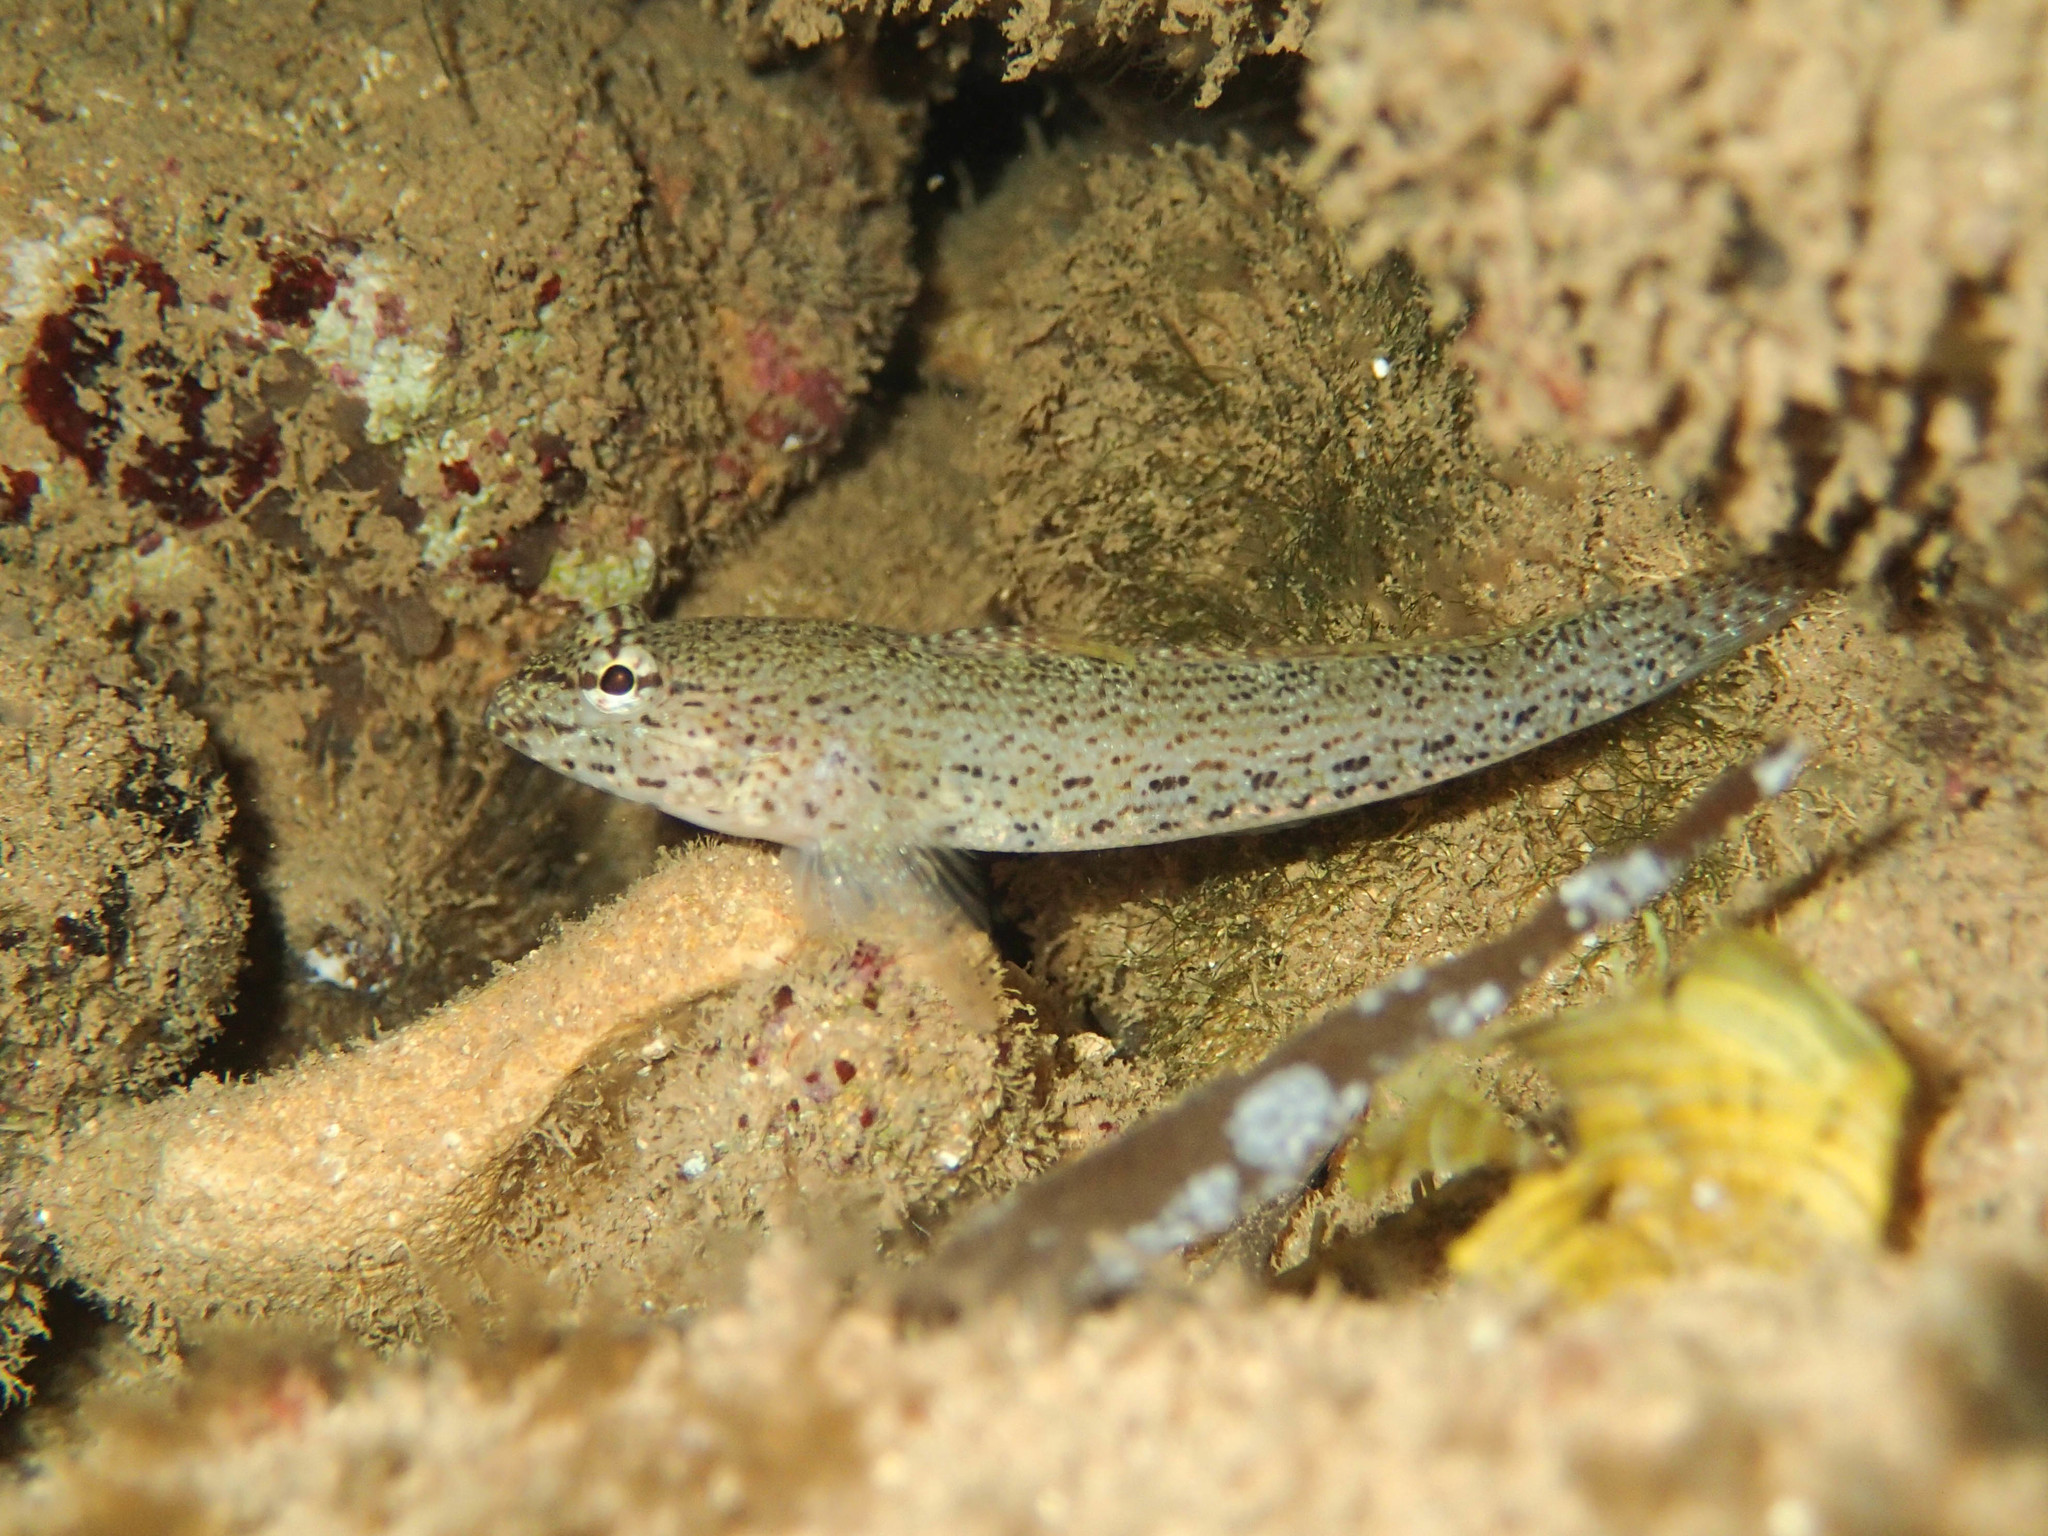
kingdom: Animalia
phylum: Chordata
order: Perciformes
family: Gobiidae
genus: Gobius
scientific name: Gobius incognitus
